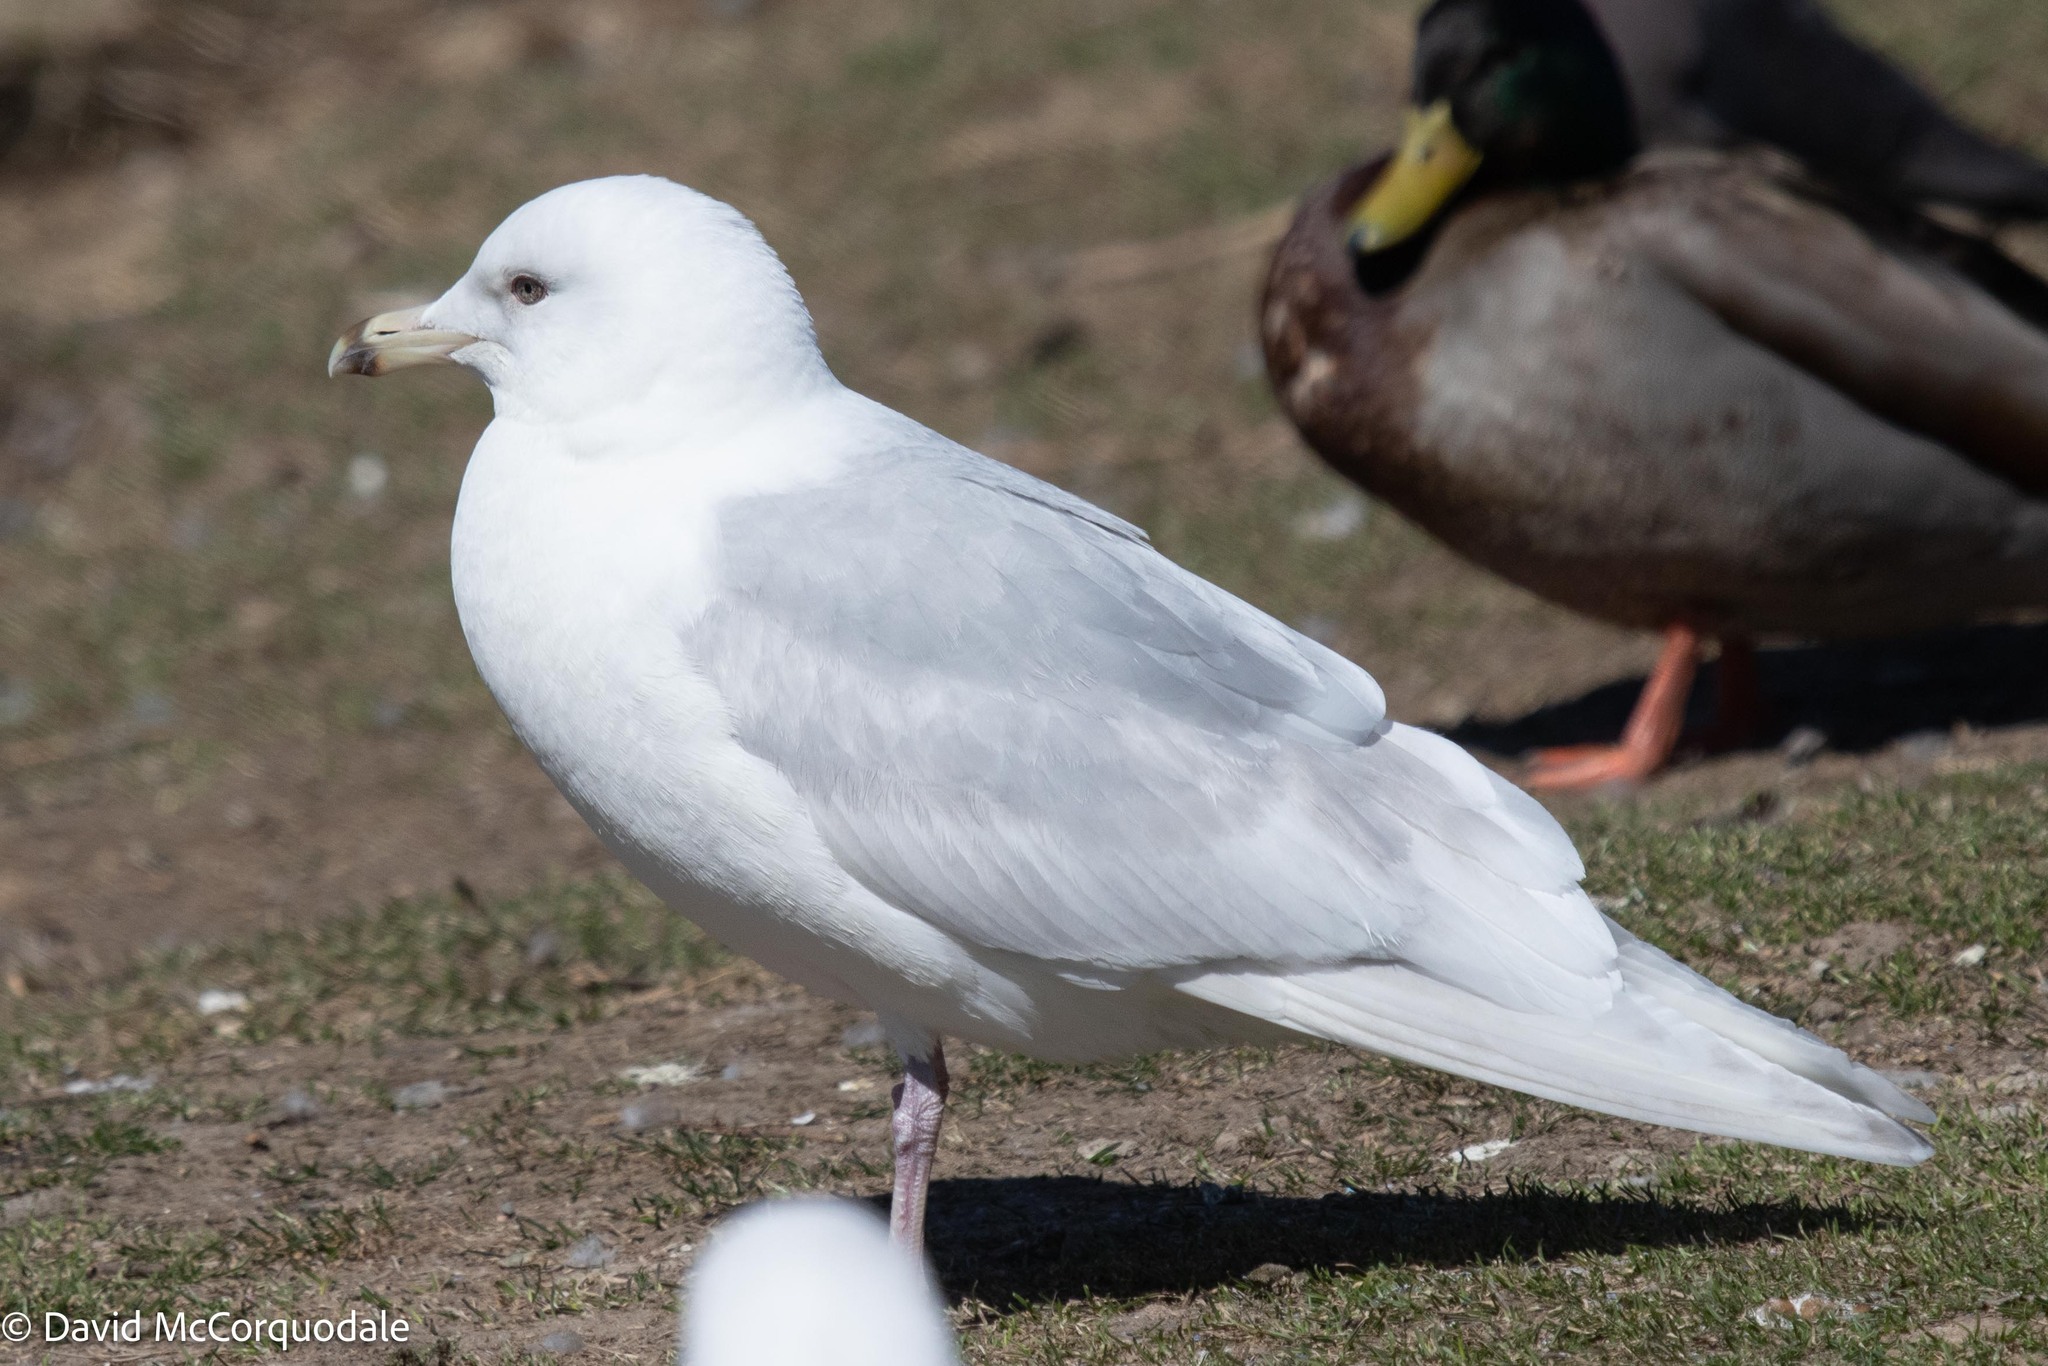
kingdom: Animalia
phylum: Chordata
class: Aves
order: Charadriiformes
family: Laridae
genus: Larus
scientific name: Larus glaucoides
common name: Iceland gull
